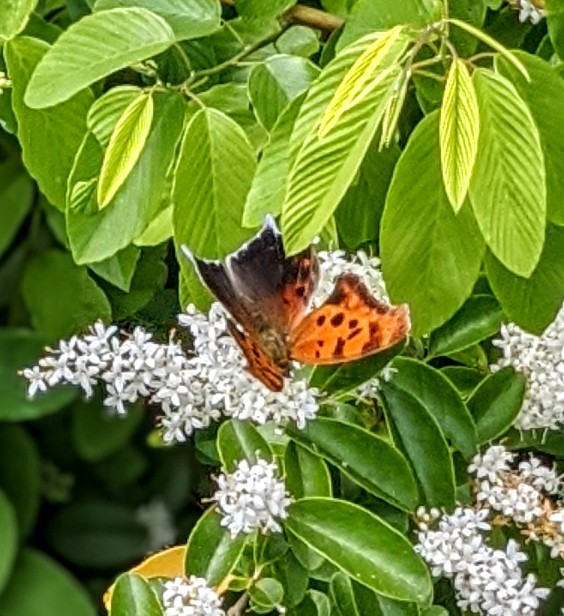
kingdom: Animalia
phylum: Arthropoda
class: Insecta
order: Lepidoptera
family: Nymphalidae
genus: Polygonia
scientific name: Polygonia interrogationis
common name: Question mark
